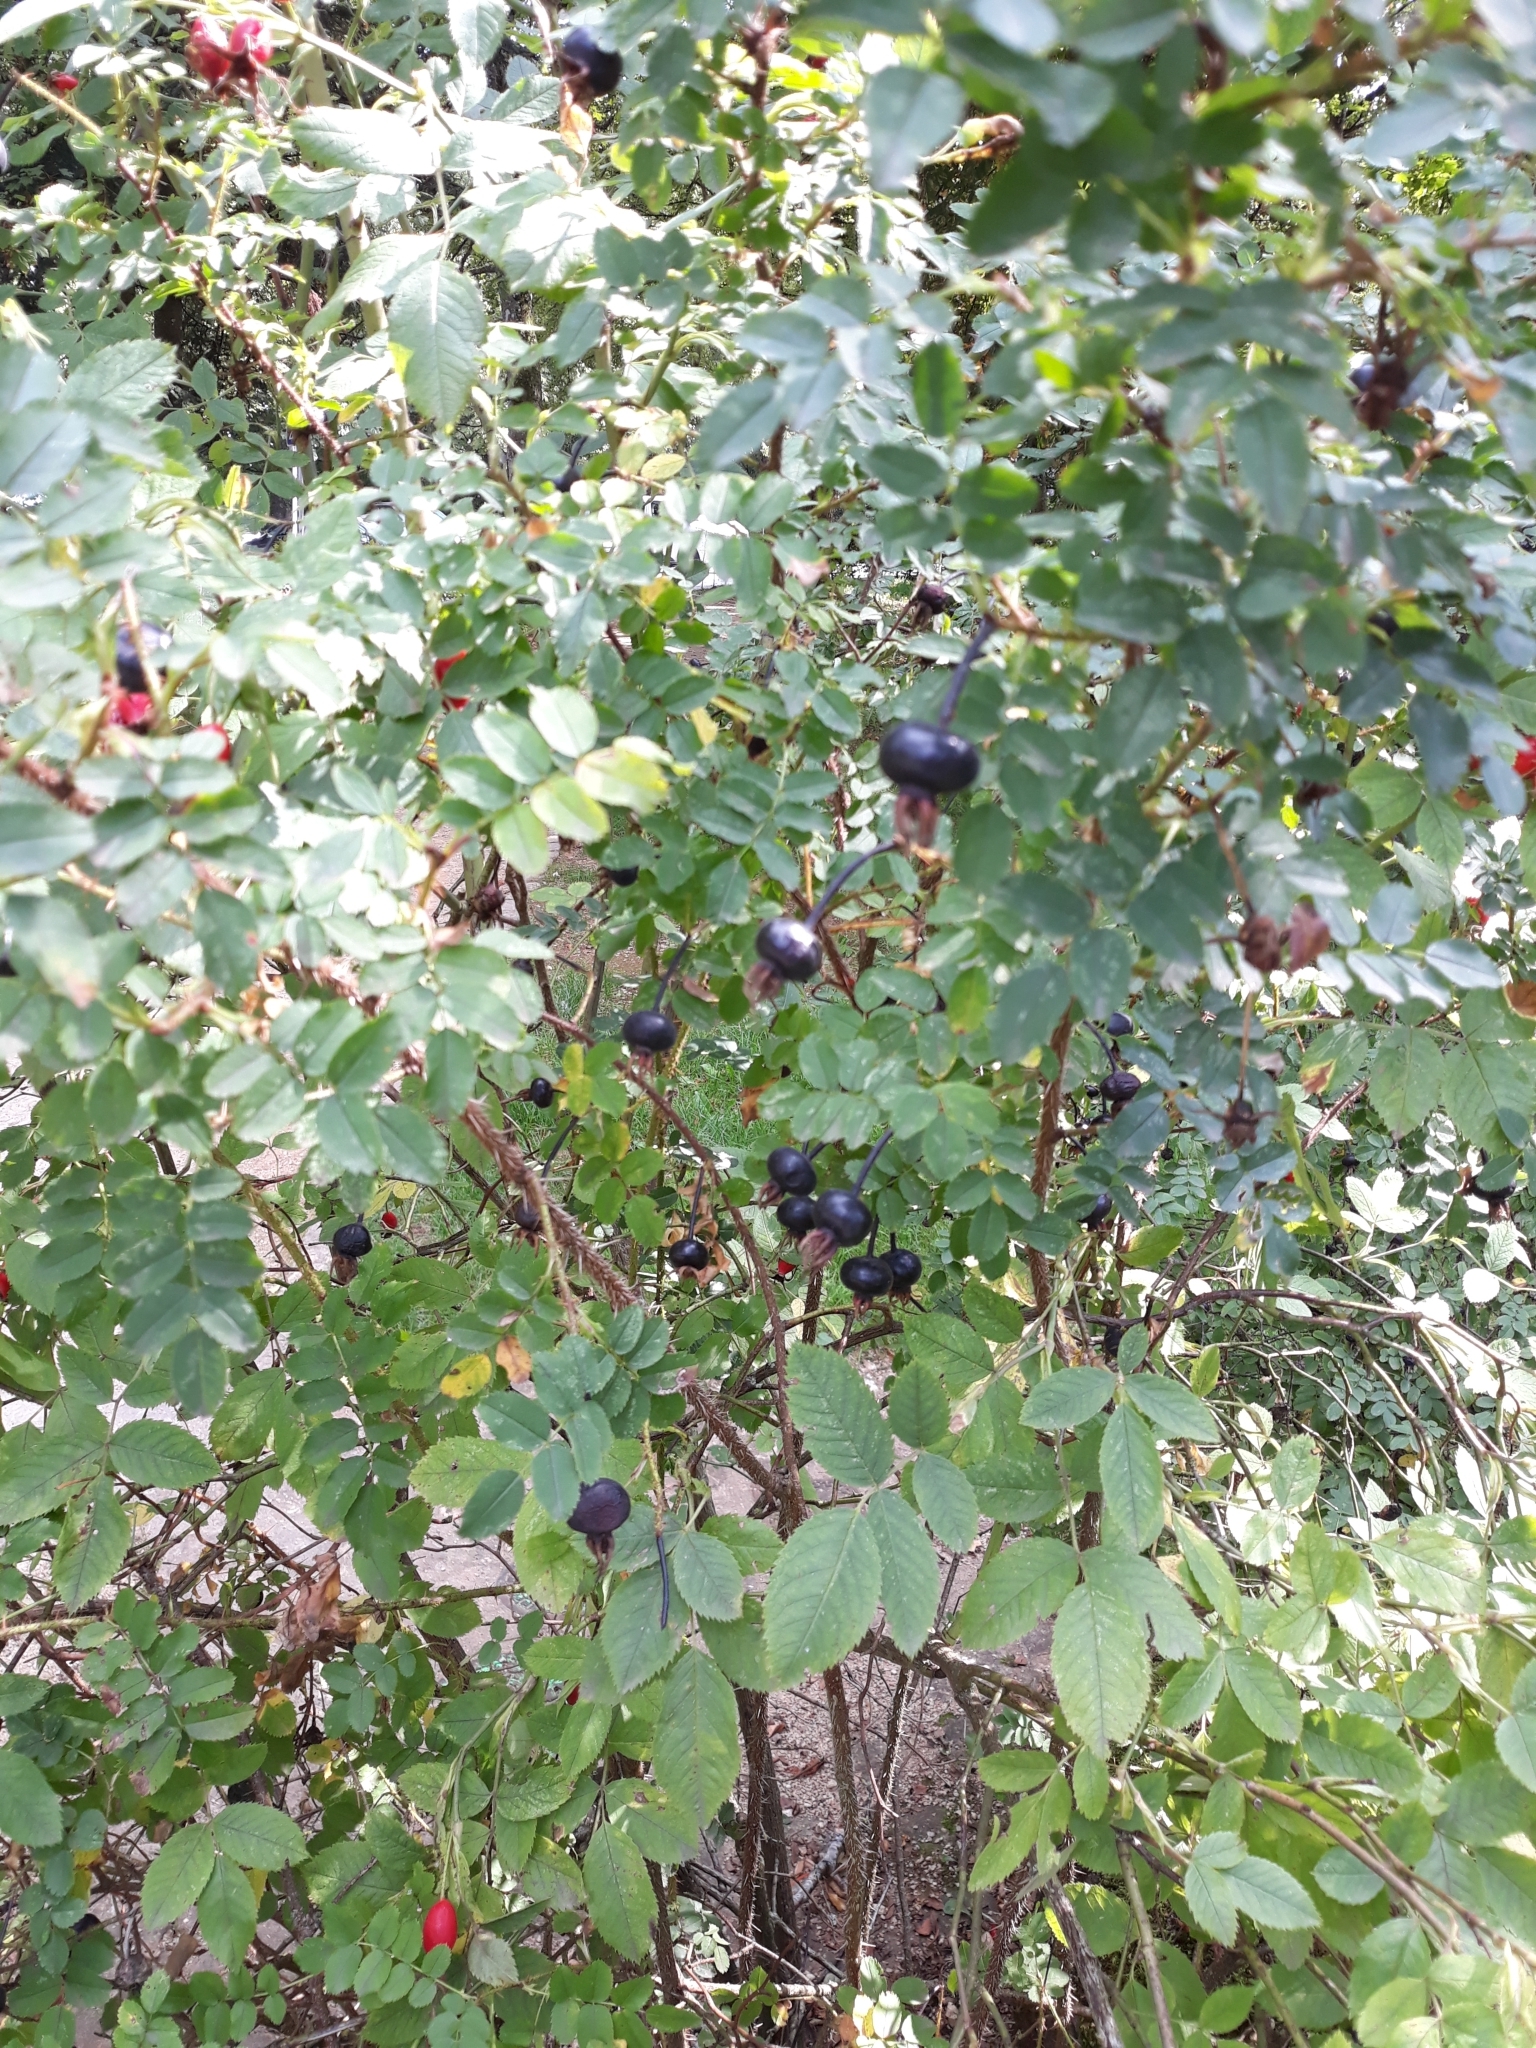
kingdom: Plantae
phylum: Tracheophyta
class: Magnoliopsida
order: Rosales
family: Rosaceae
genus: Rosa
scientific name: Rosa spinosissima
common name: Burnet rose
